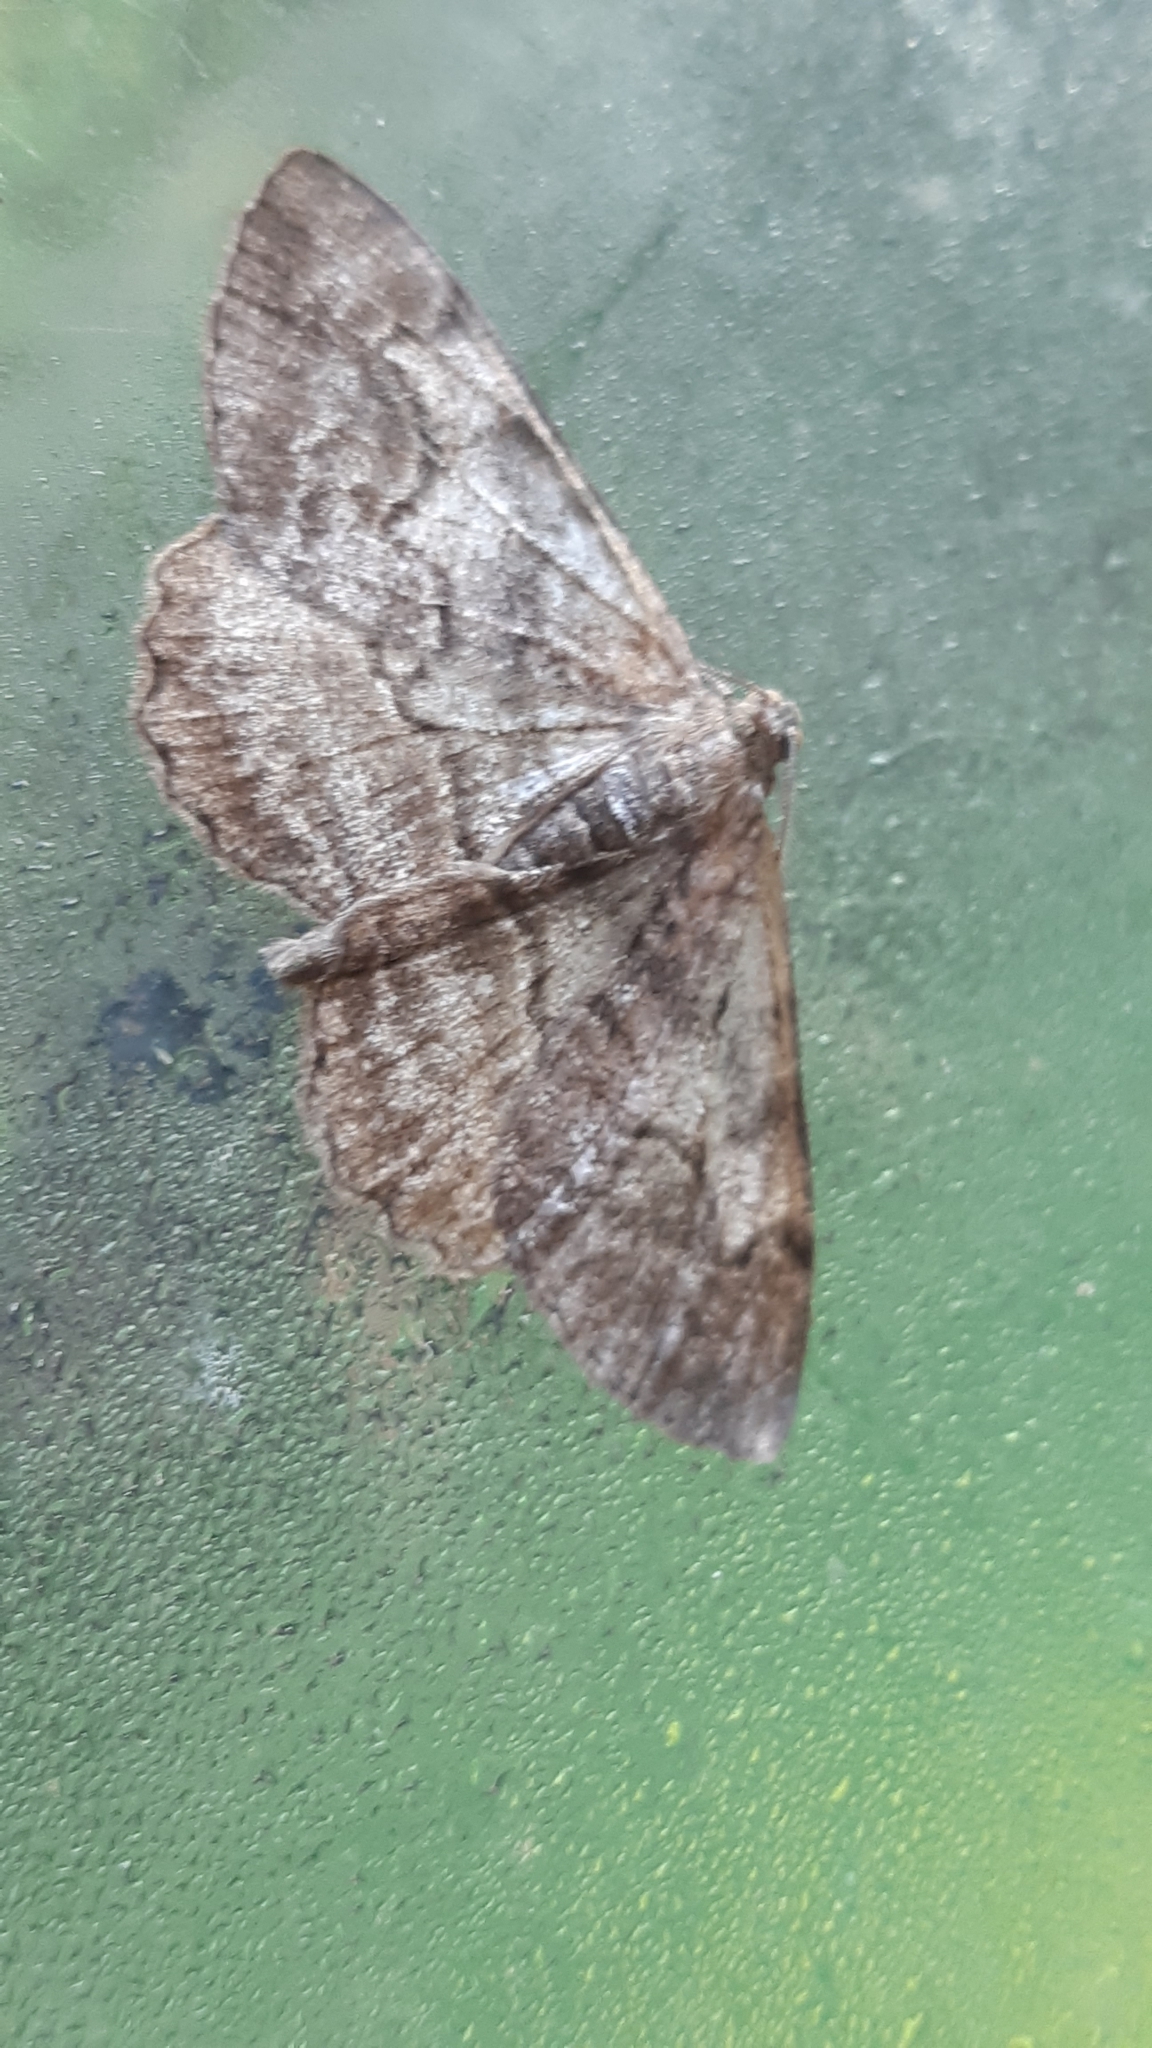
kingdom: Animalia
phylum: Arthropoda
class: Insecta
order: Lepidoptera
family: Geometridae
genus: Alcis
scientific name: Alcis repandata
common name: Mottled beauty
